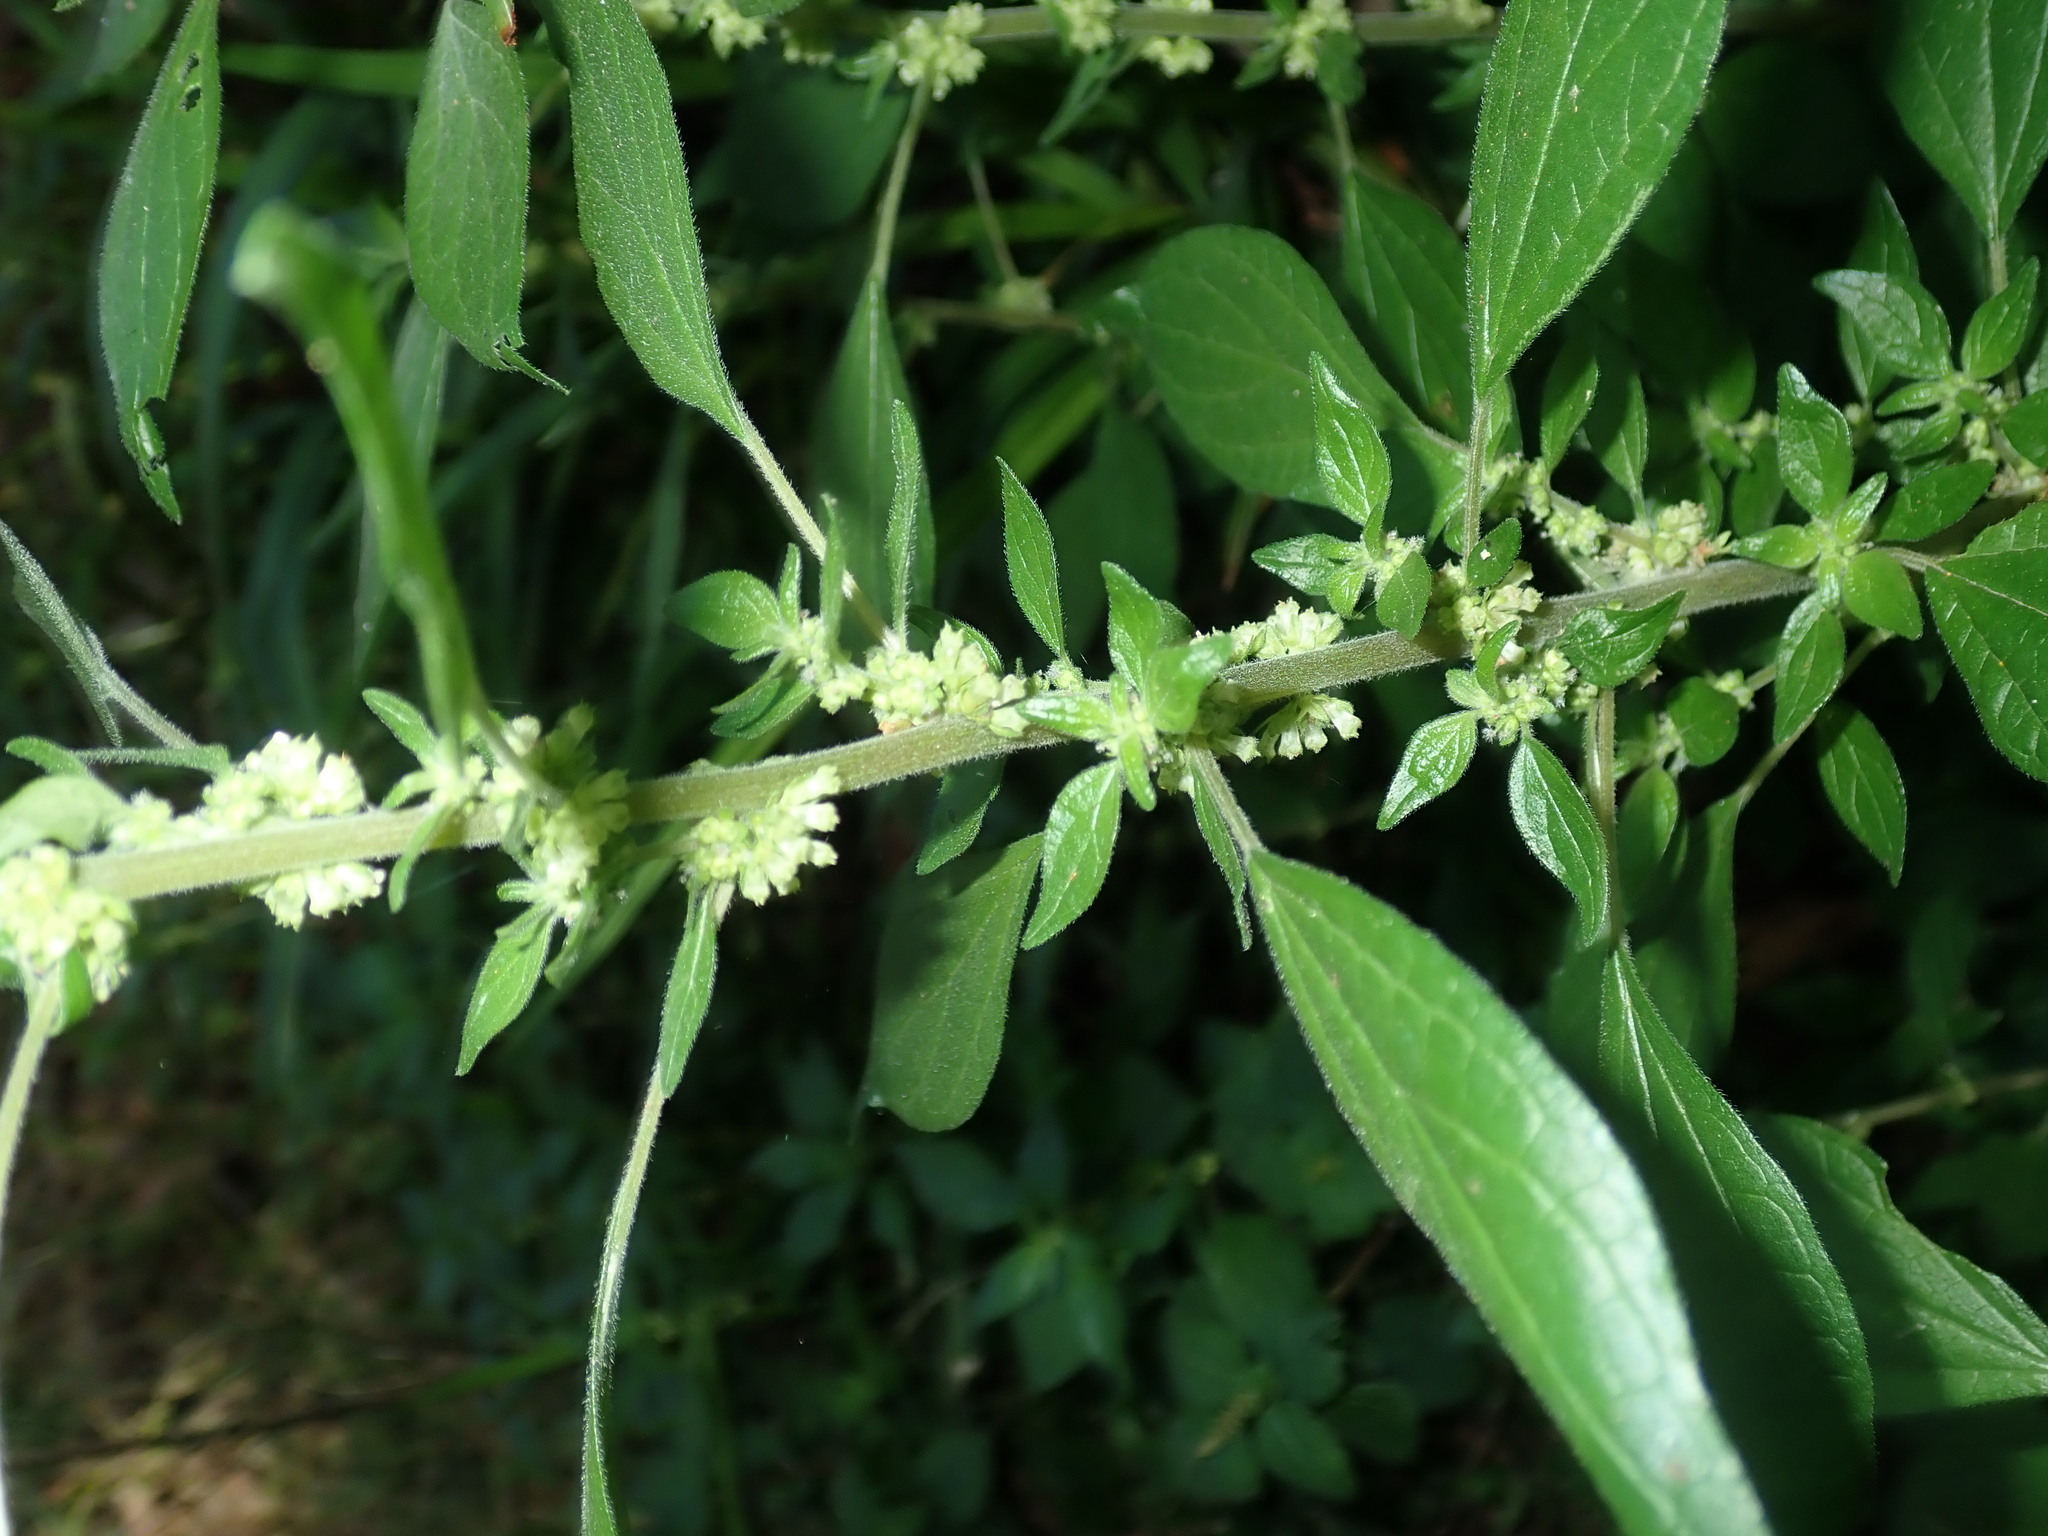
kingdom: Plantae
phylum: Tracheophyta
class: Magnoliopsida
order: Rosales
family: Urticaceae
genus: Parietaria
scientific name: Parietaria judaica
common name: Pellitory-of-the-wall
